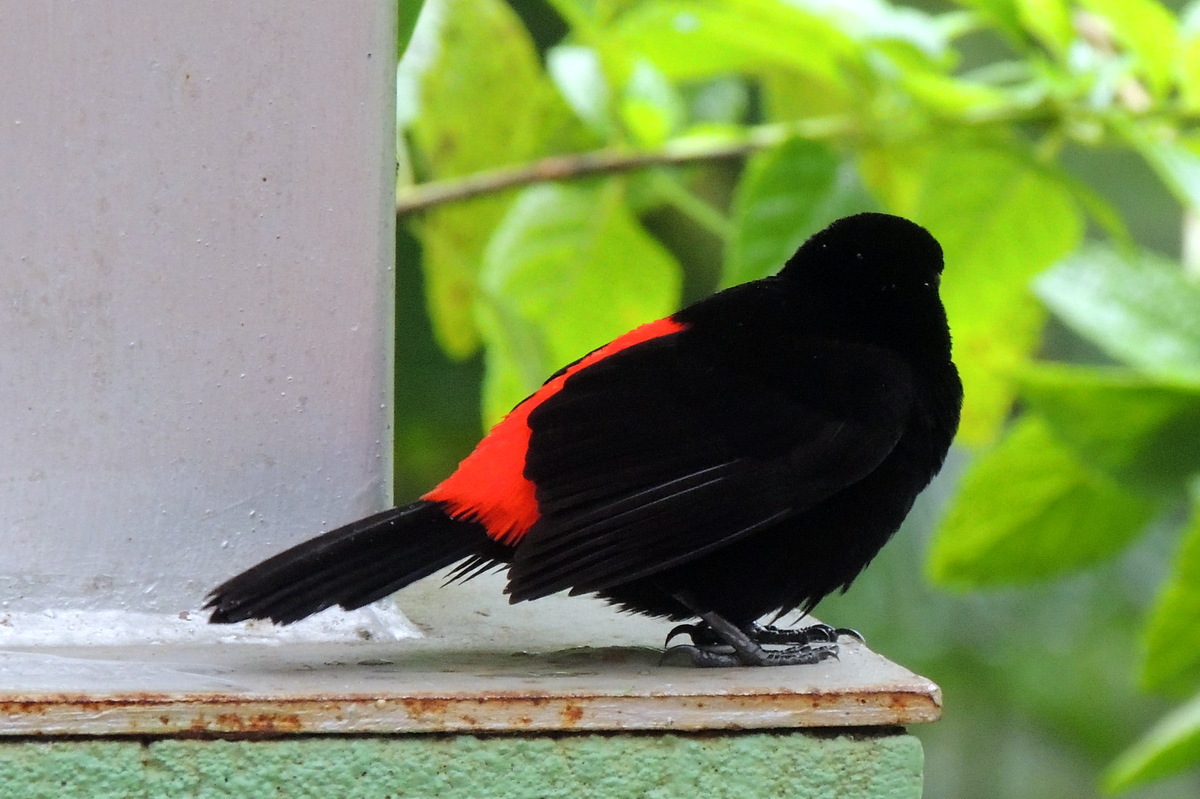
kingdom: Animalia
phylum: Chordata
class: Aves
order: Passeriformes
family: Thraupidae
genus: Ramphocelus
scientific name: Ramphocelus passerinii
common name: Passerini's tanager
